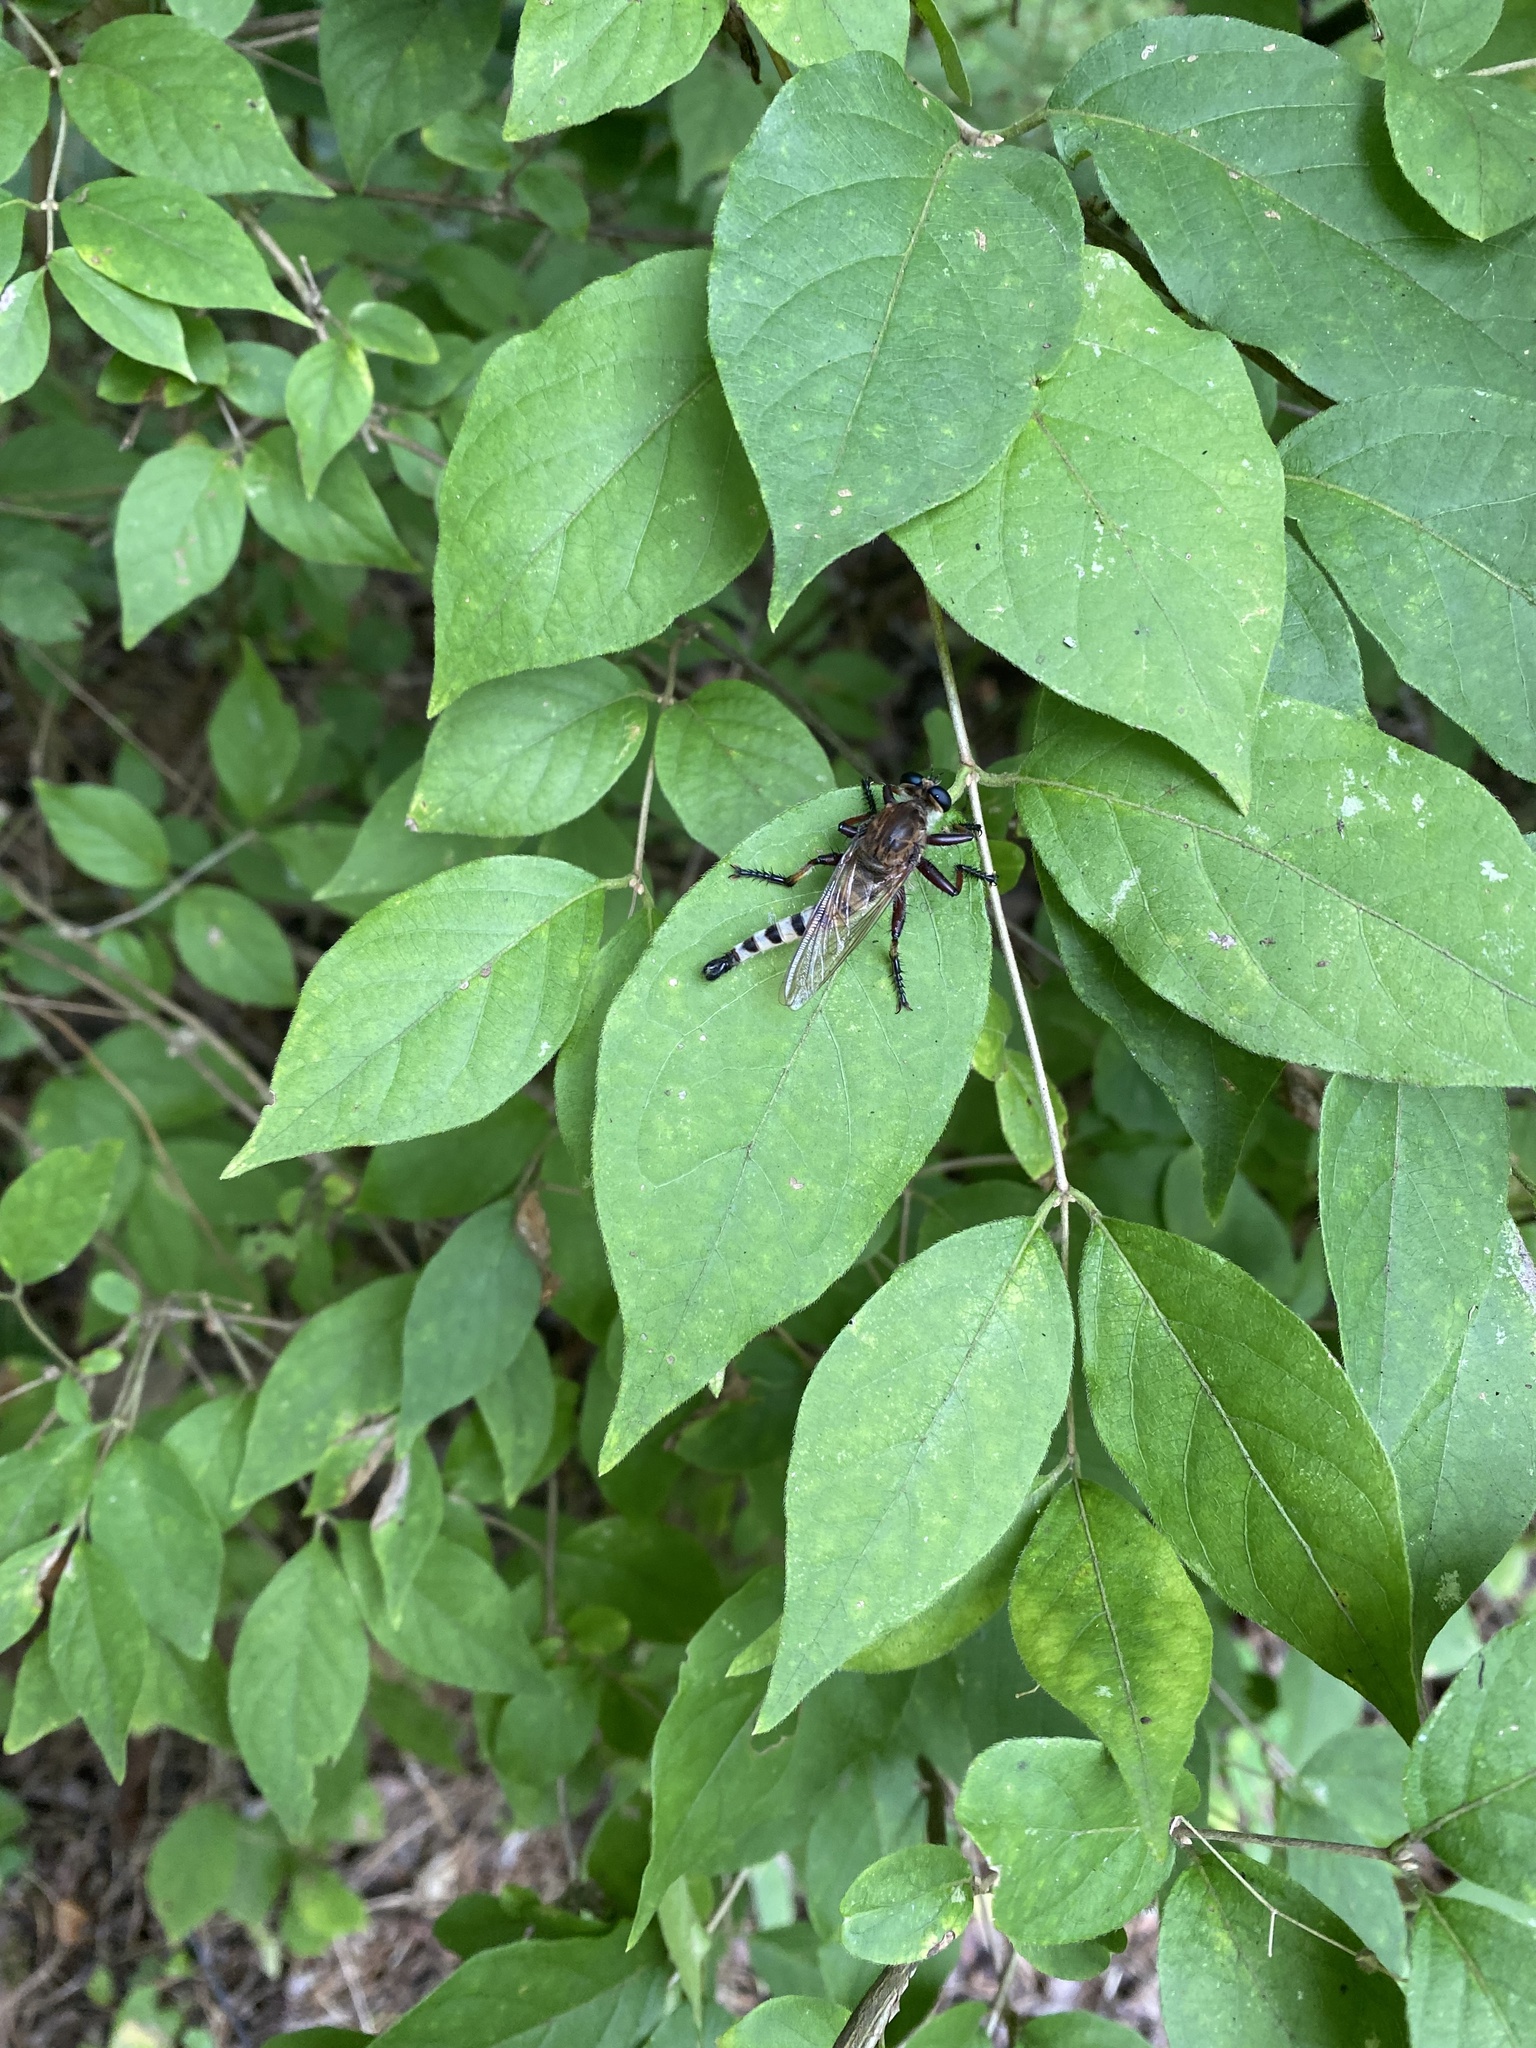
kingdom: Animalia
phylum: Arthropoda
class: Insecta
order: Diptera
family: Asilidae
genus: Promachus
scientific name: Promachus hinei
